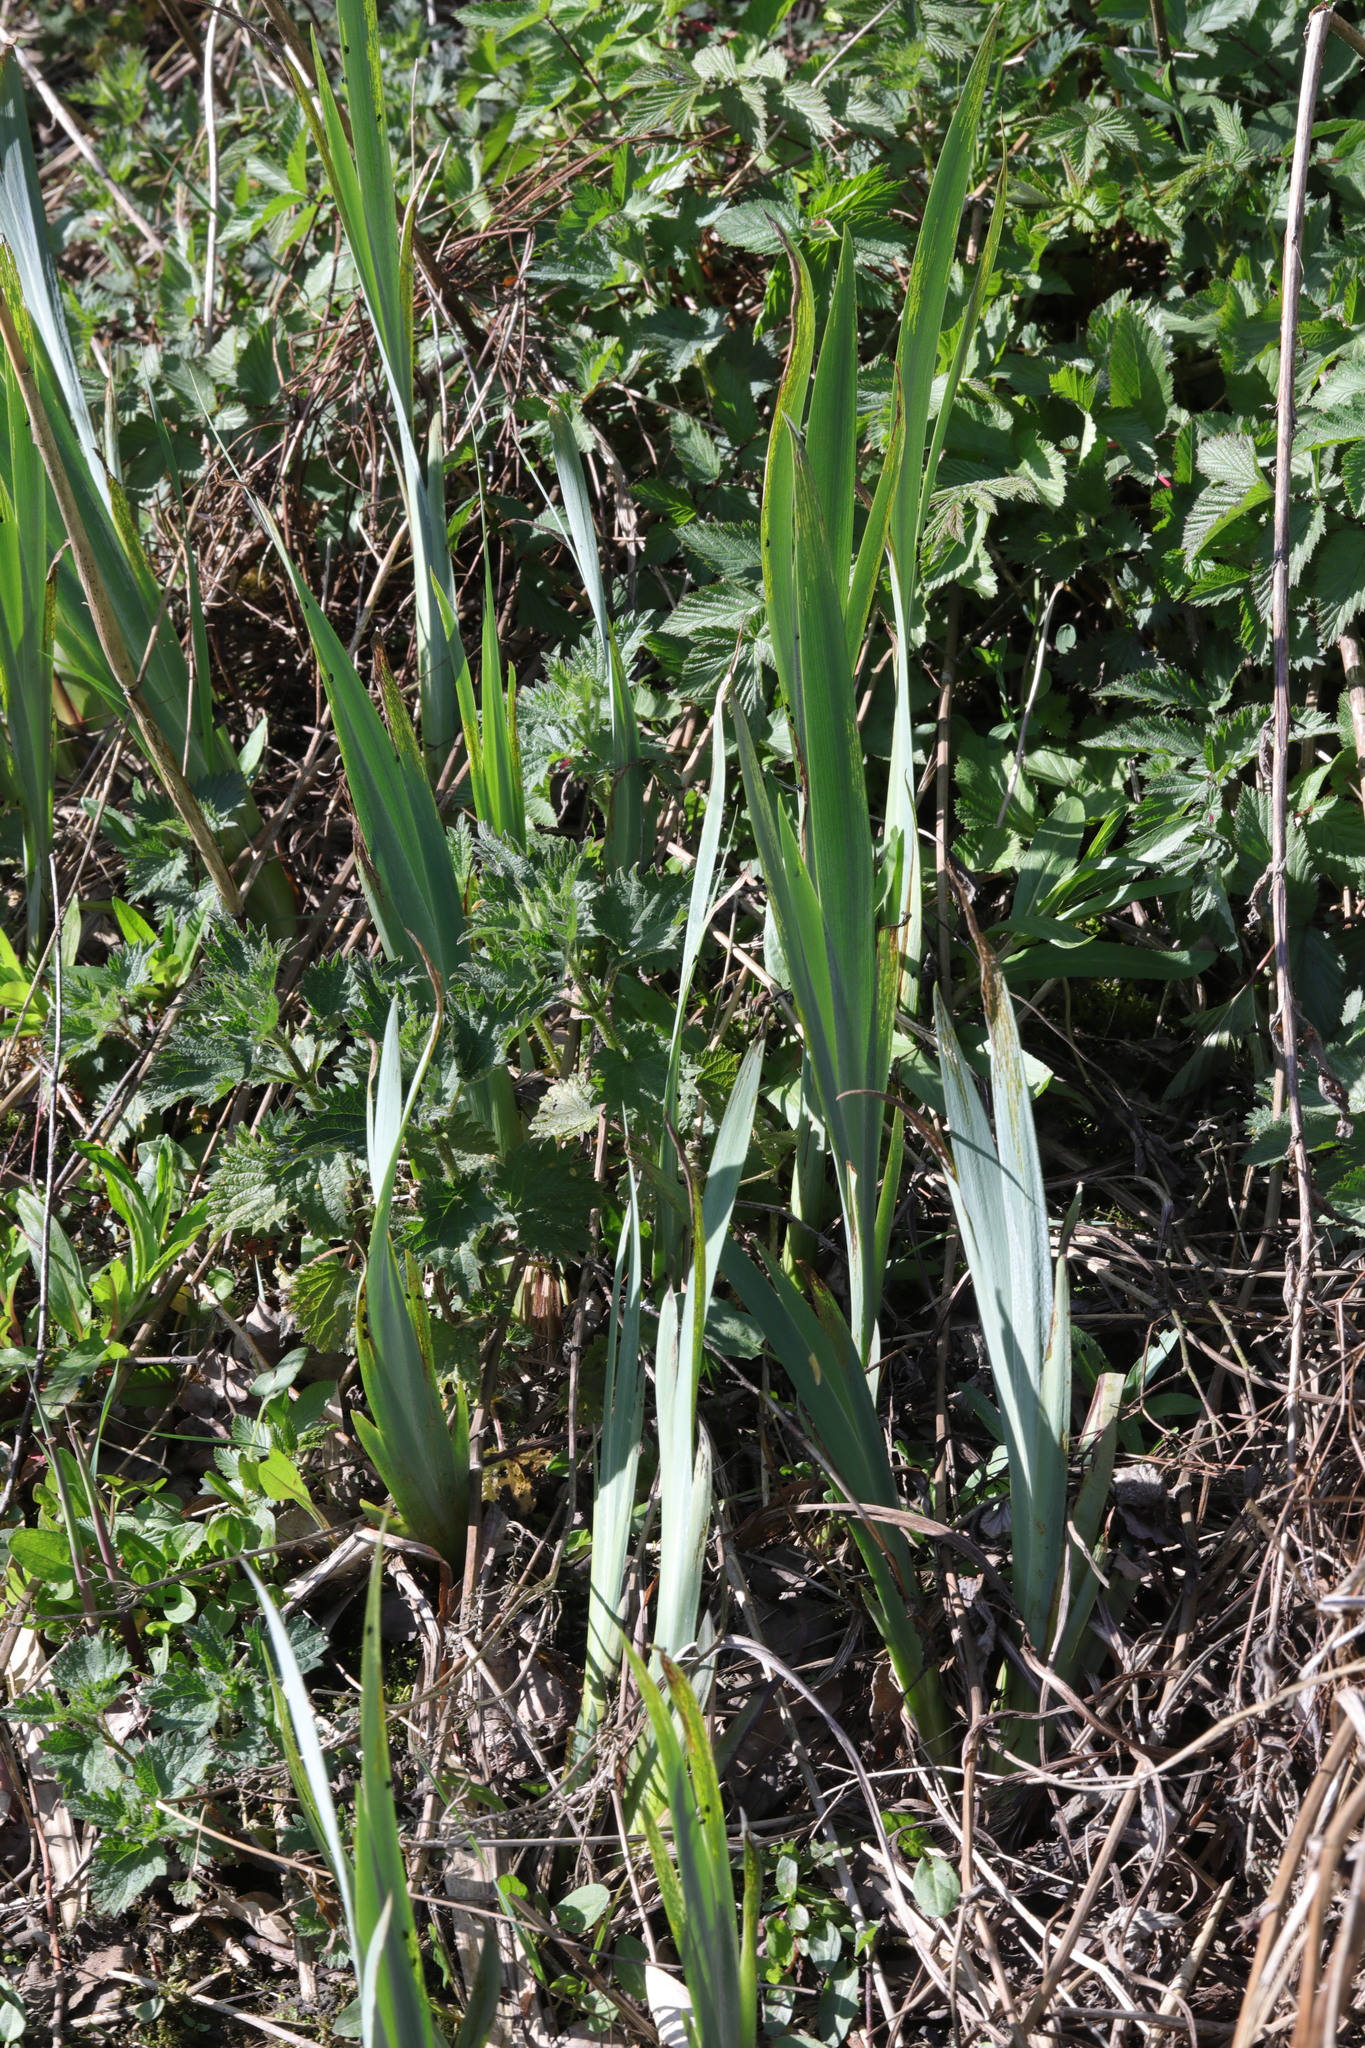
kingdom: Plantae
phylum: Tracheophyta
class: Liliopsida
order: Asparagales
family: Iridaceae
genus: Iris
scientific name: Iris pseudacorus
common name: Yellow flag
